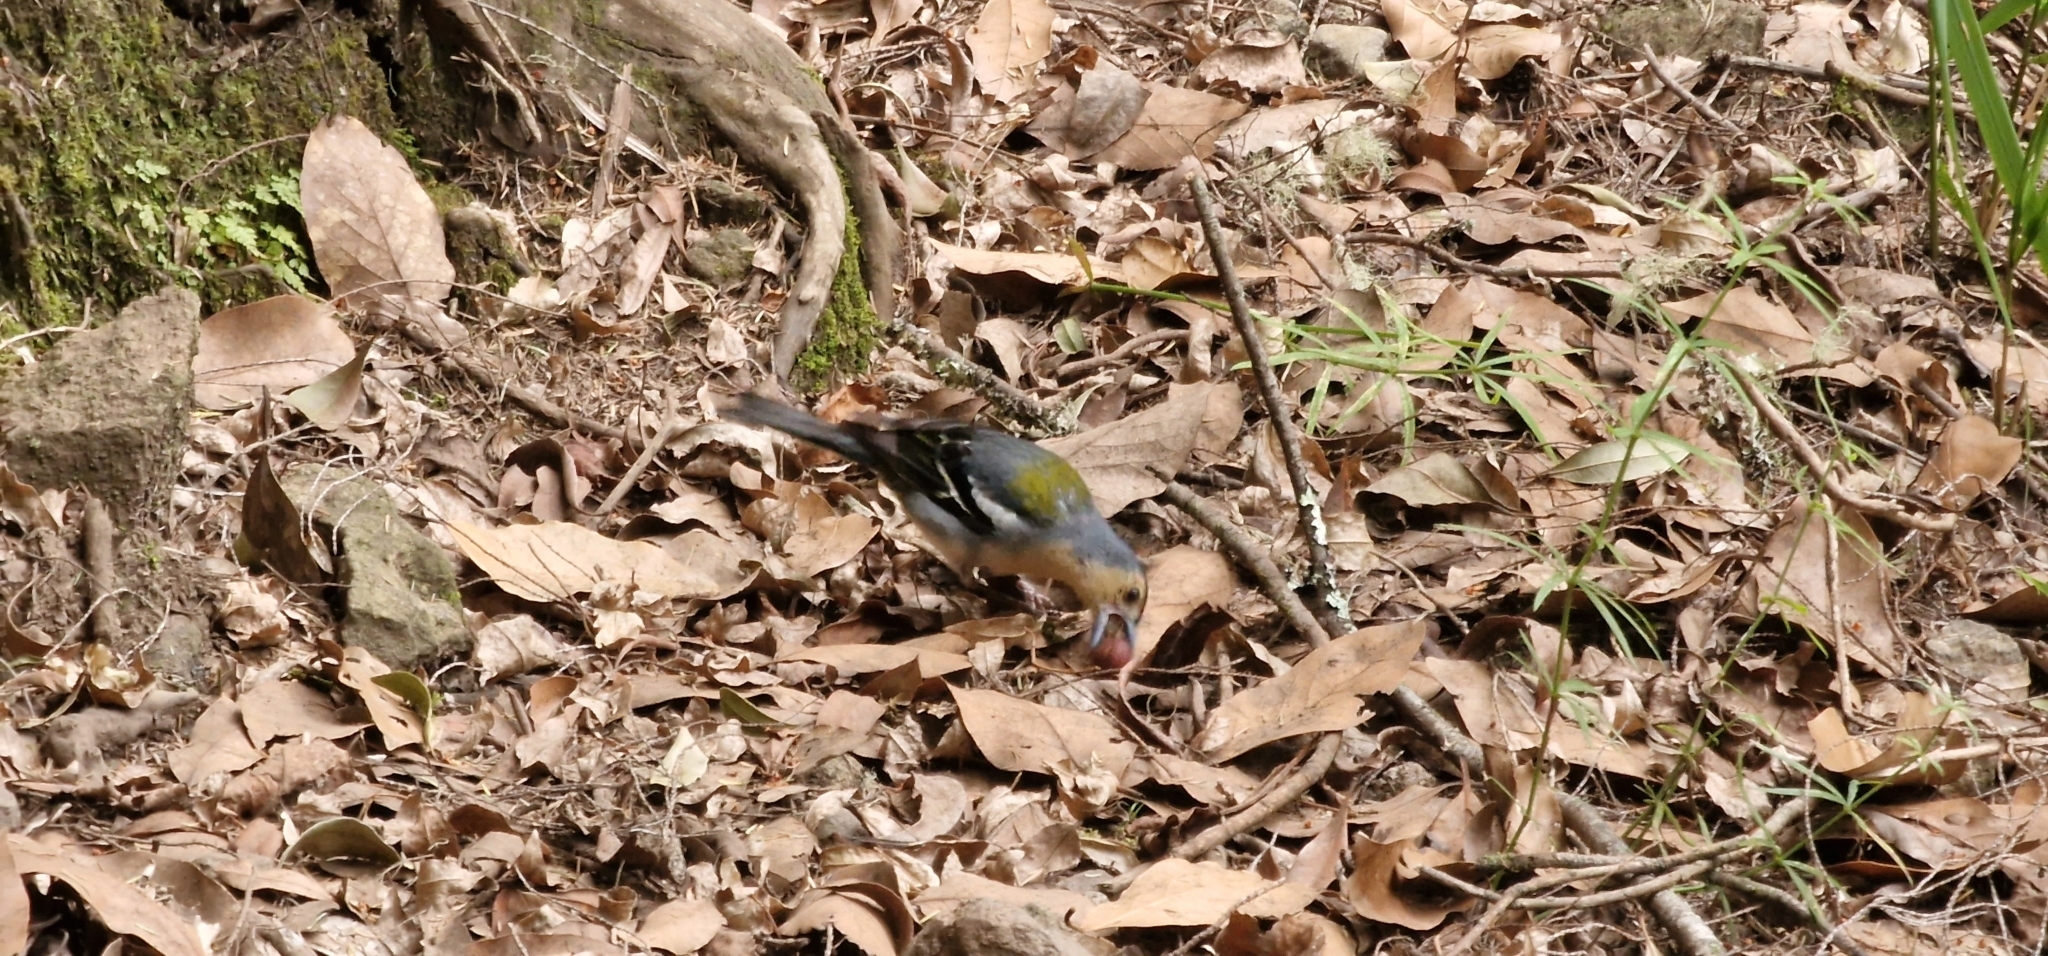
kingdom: Animalia
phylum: Chordata
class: Aves
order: Passeriformes
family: Fringillidae
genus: Fringilla
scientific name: Fringilla maderensis
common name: Madeira chaffinch
